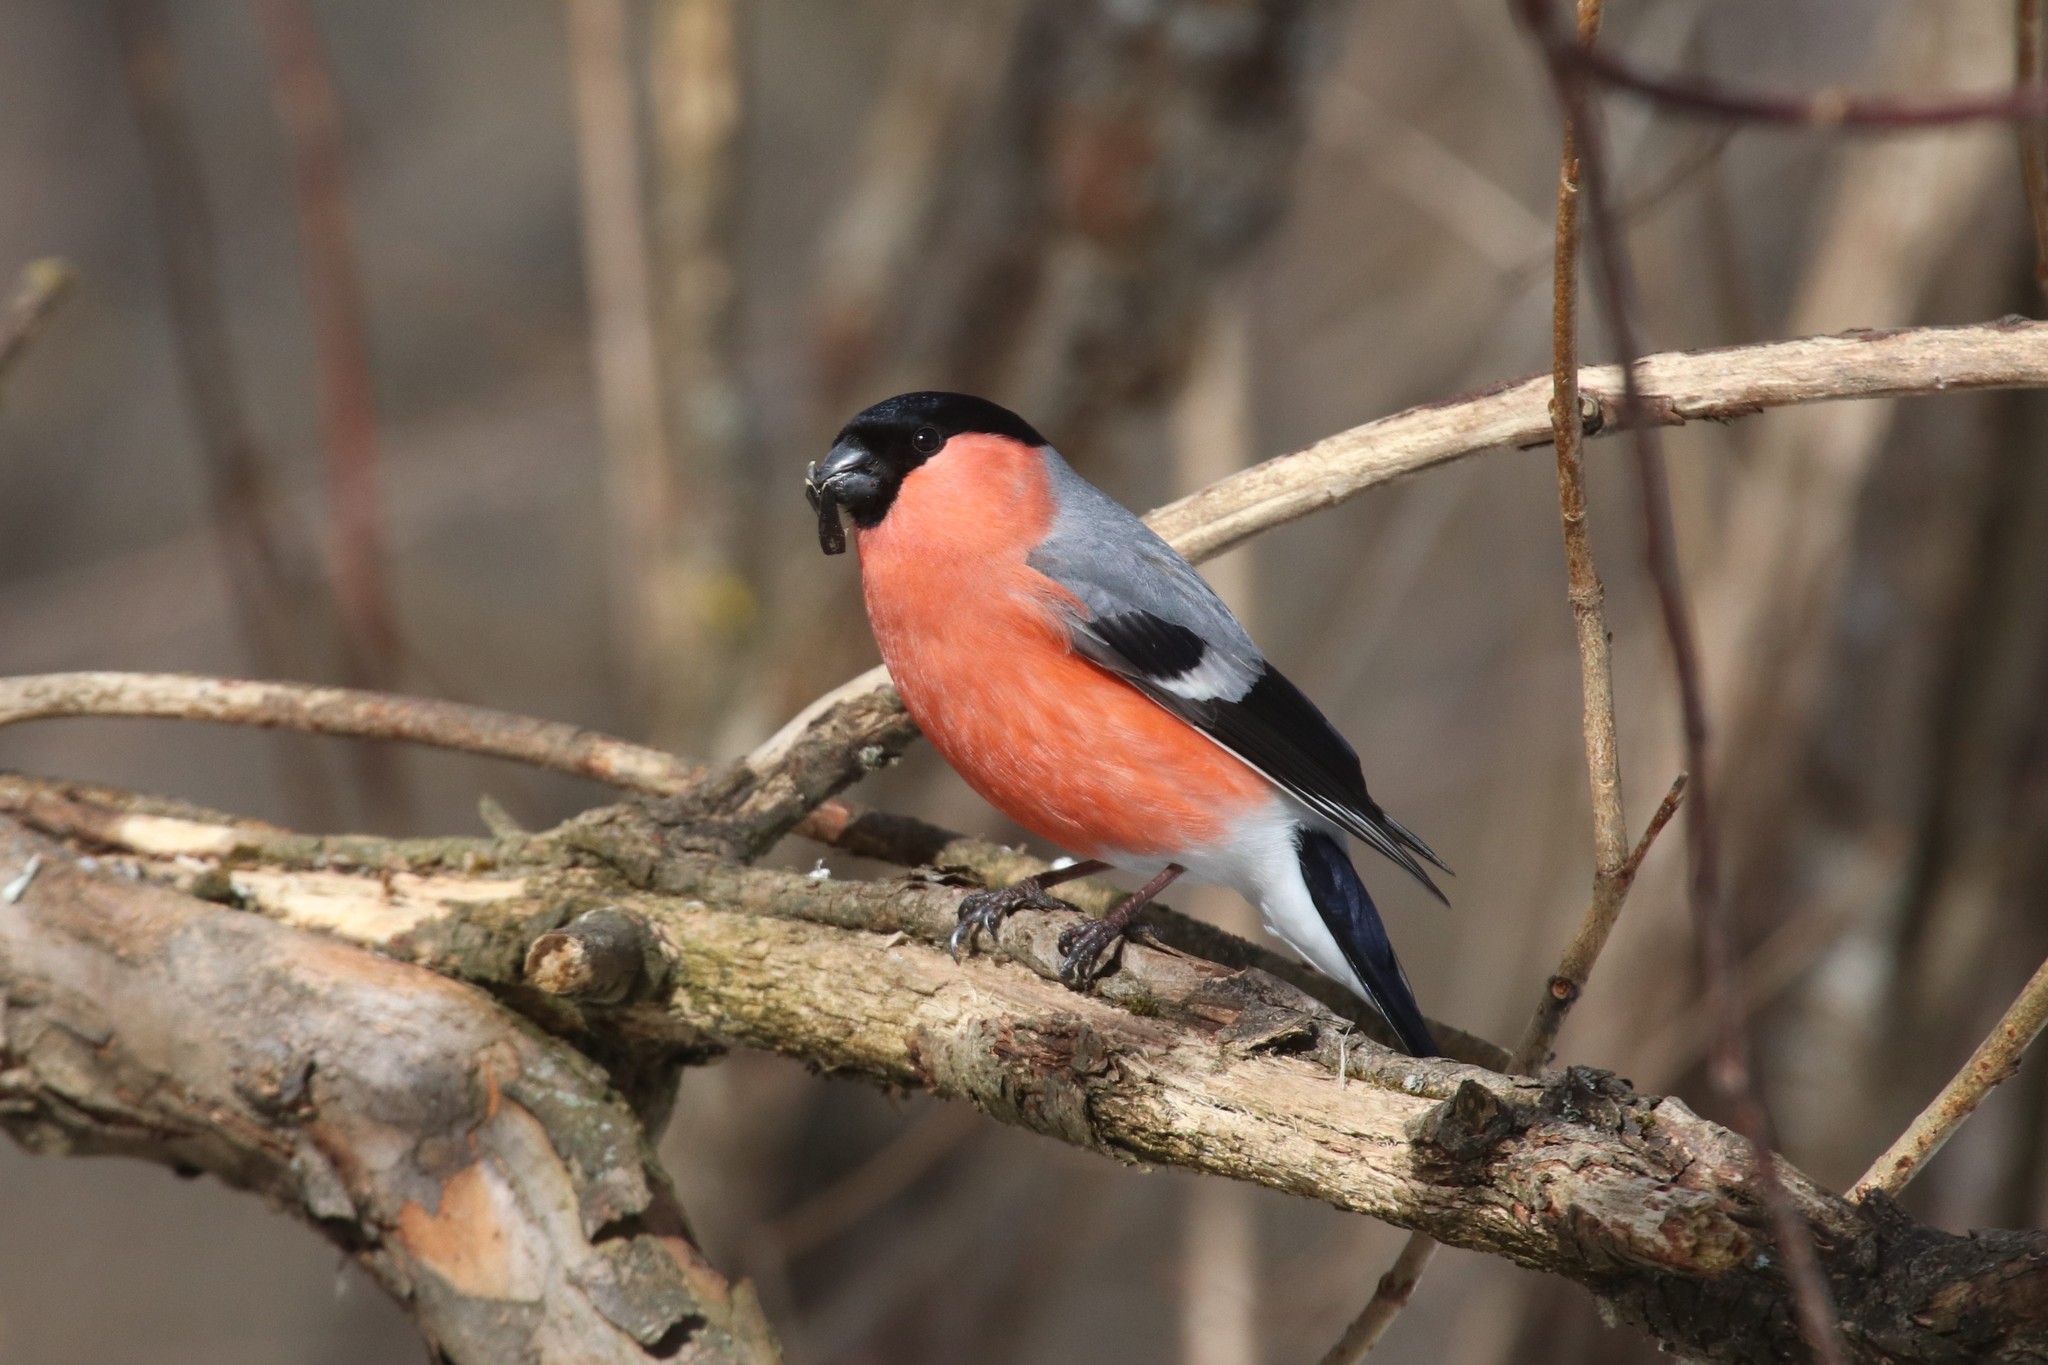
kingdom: Animalia
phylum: Chordata
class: Aves
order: Passeriformes
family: Fringillidae
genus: Pyrrhula
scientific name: Pyrrhula pyrrhula
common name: Eurasian bullfinch
